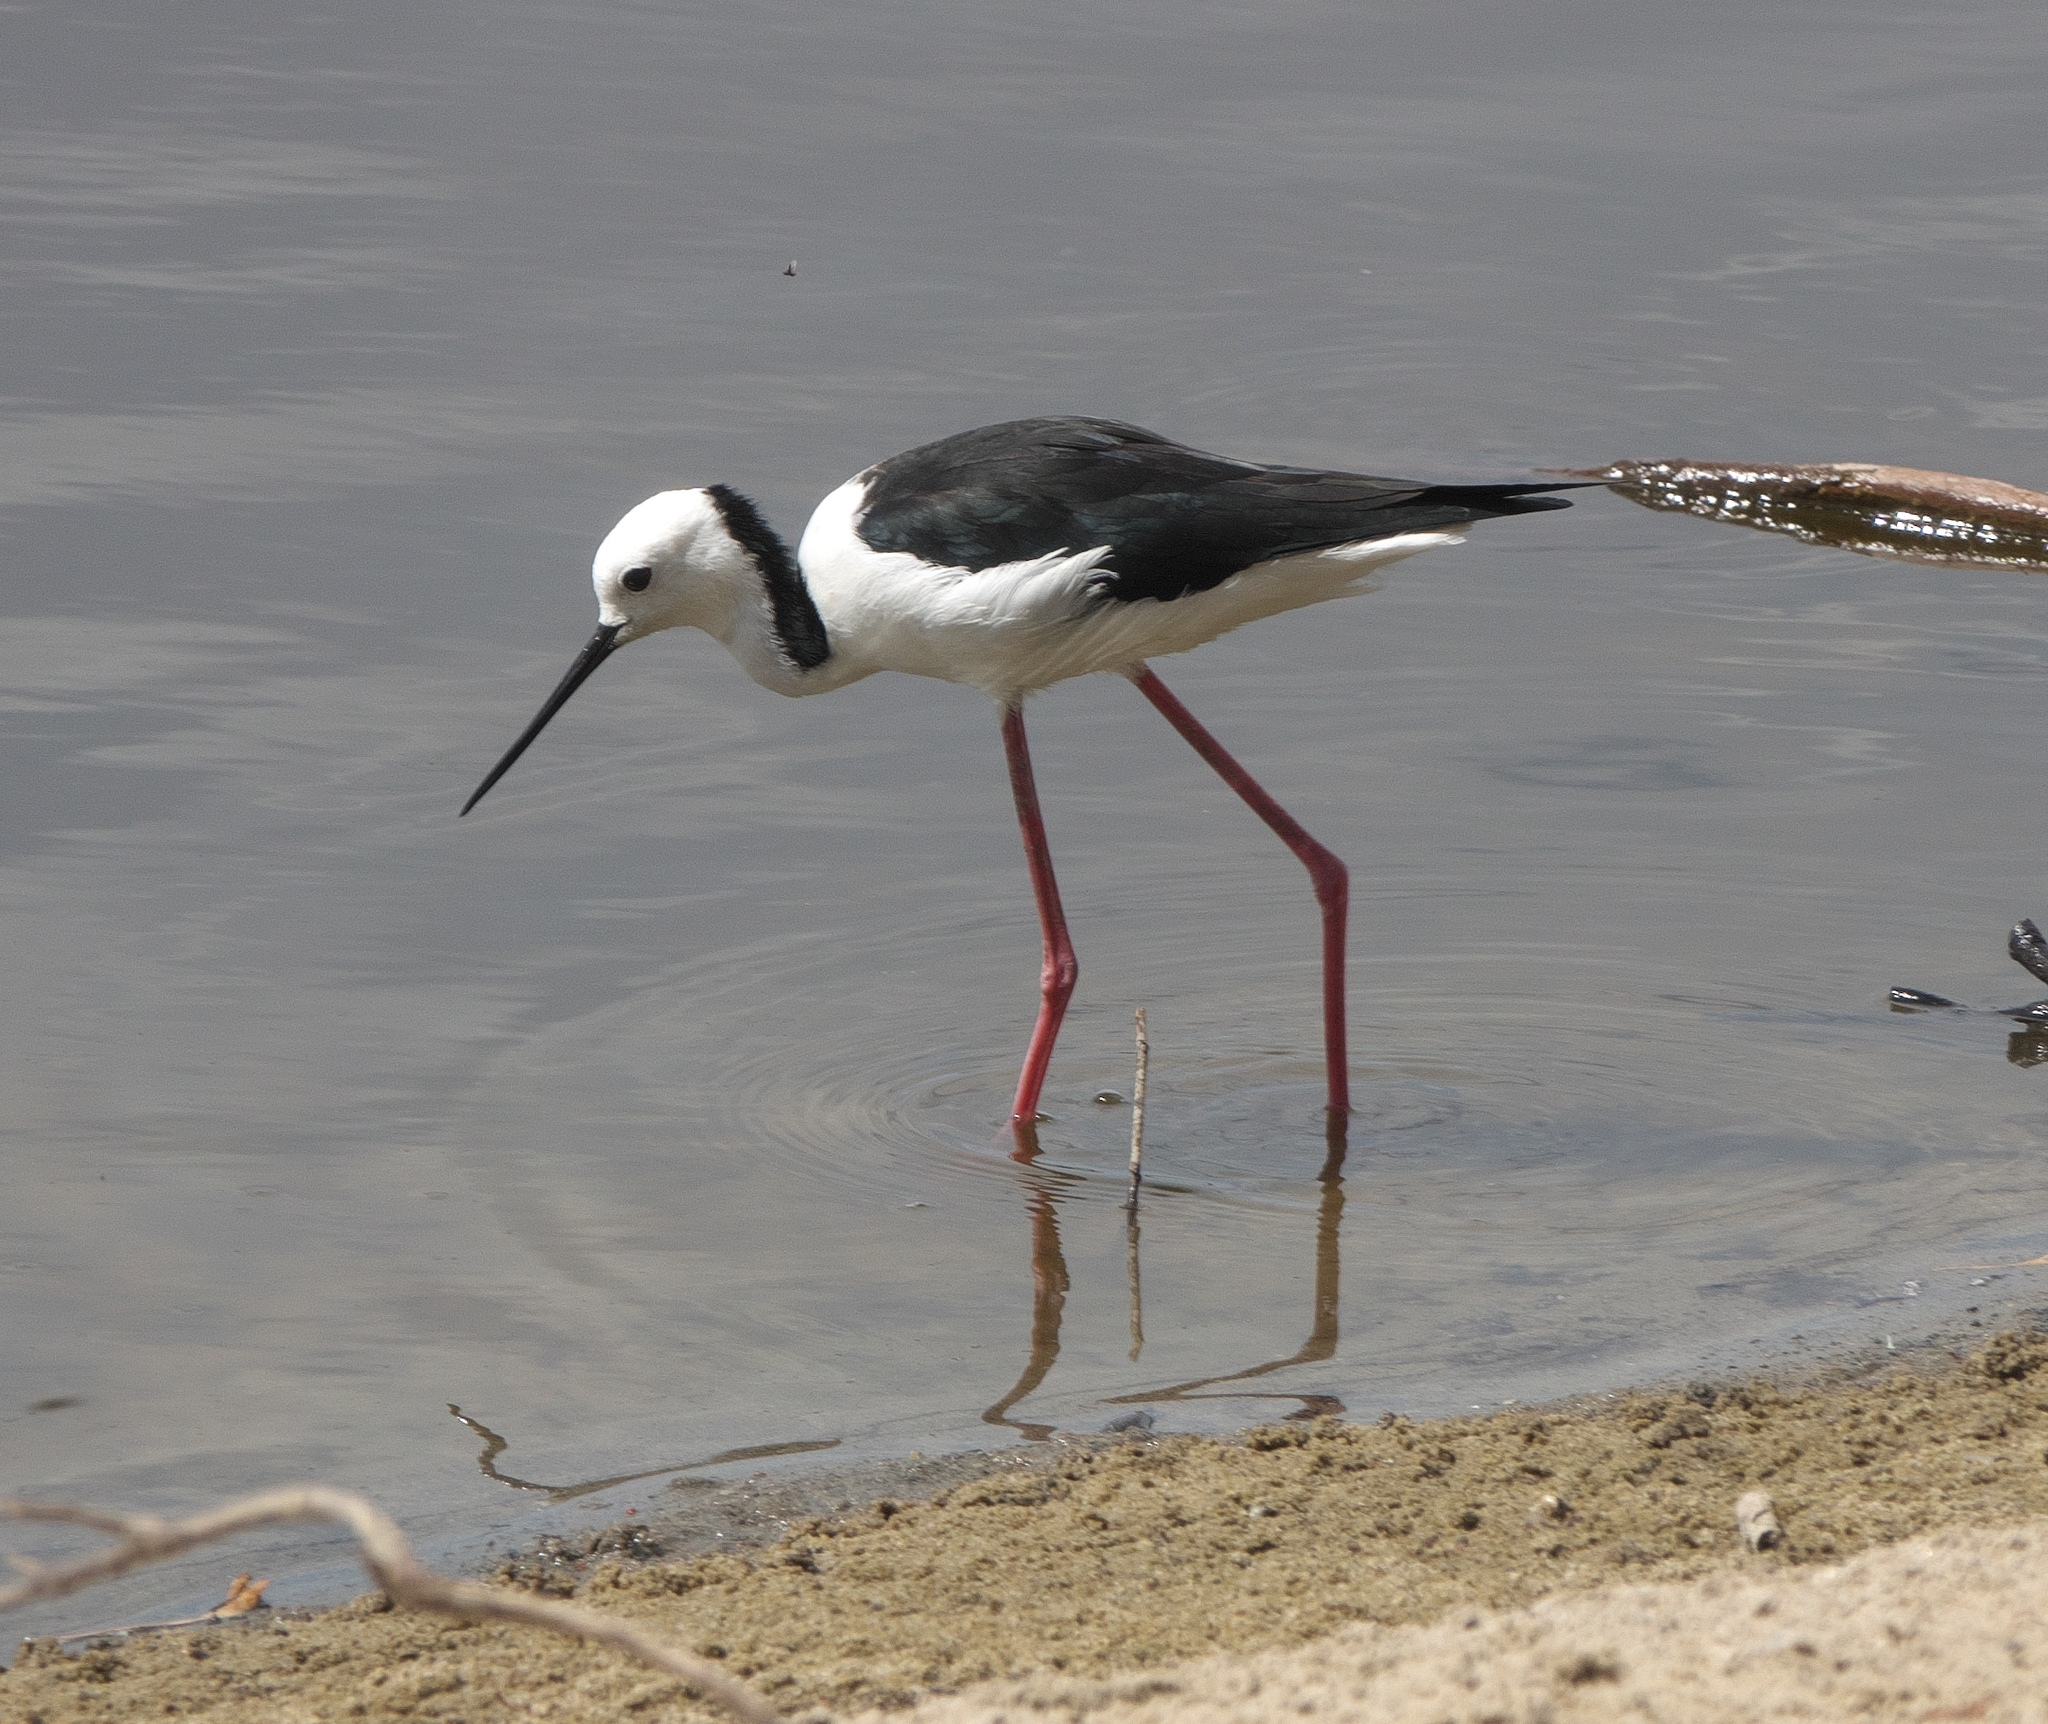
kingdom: Animalia
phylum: Chordata
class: Aves
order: Charadriiformes
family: Recurvirostridae
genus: Himantopus
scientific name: Himantopus leucocephalus
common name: White-headed stilt
